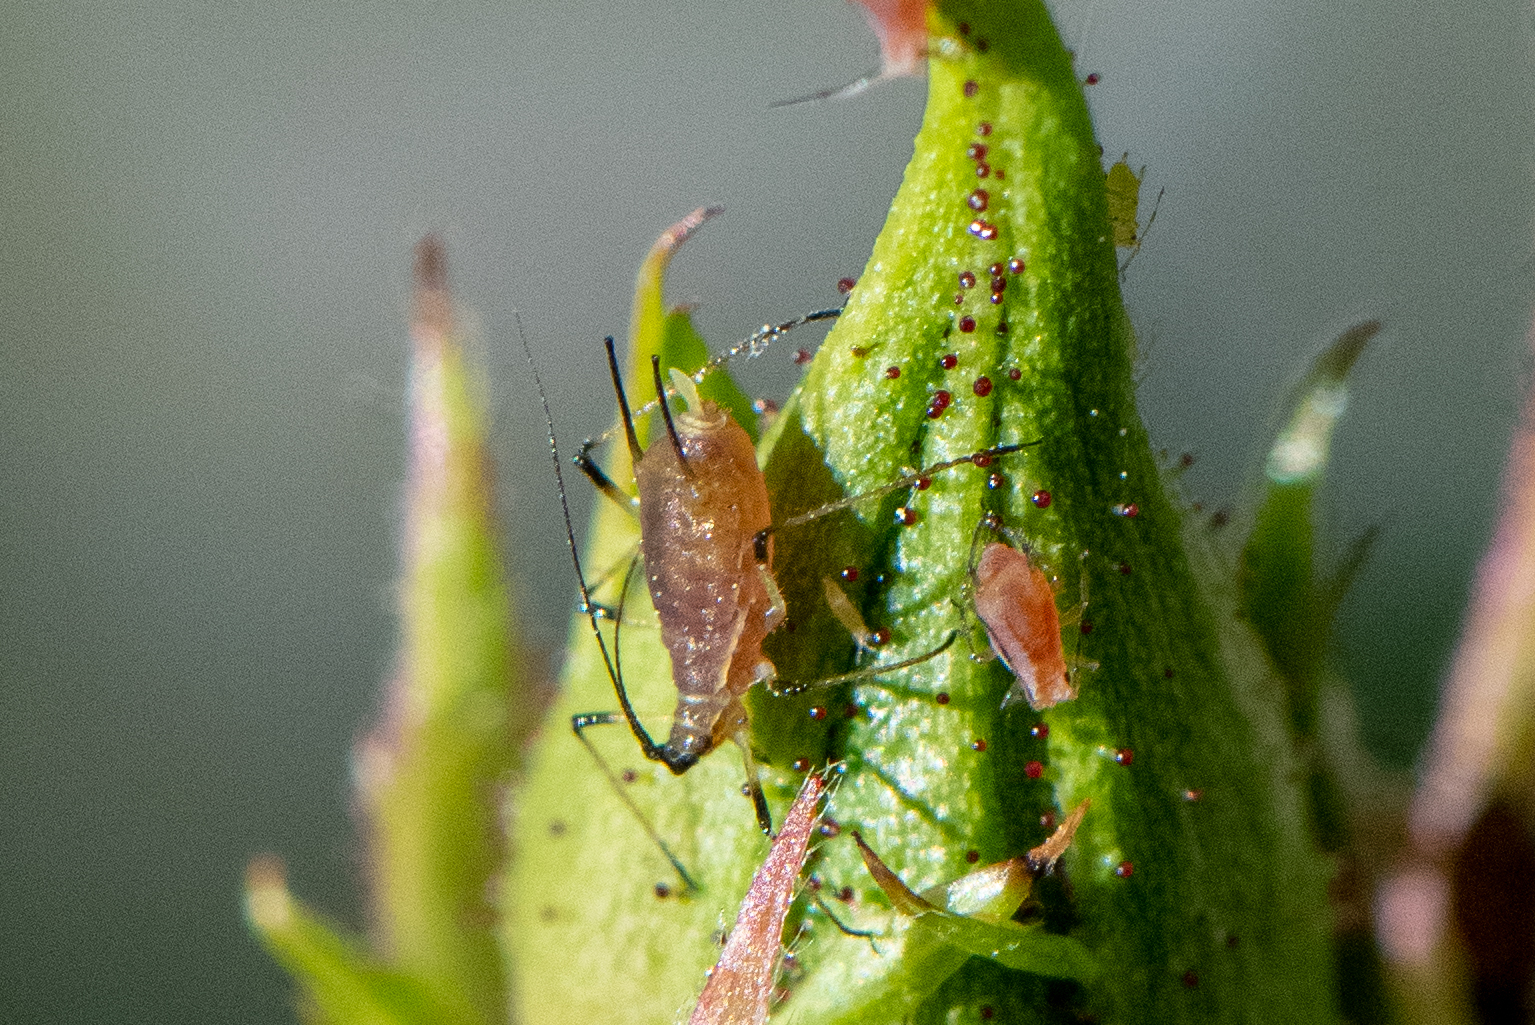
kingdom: Animalia
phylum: Arthropoda
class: Insecta
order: Hemiptera
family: Aphididae
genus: Macrosiphum
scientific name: Macrosiphum rosae
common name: Rose aphid
